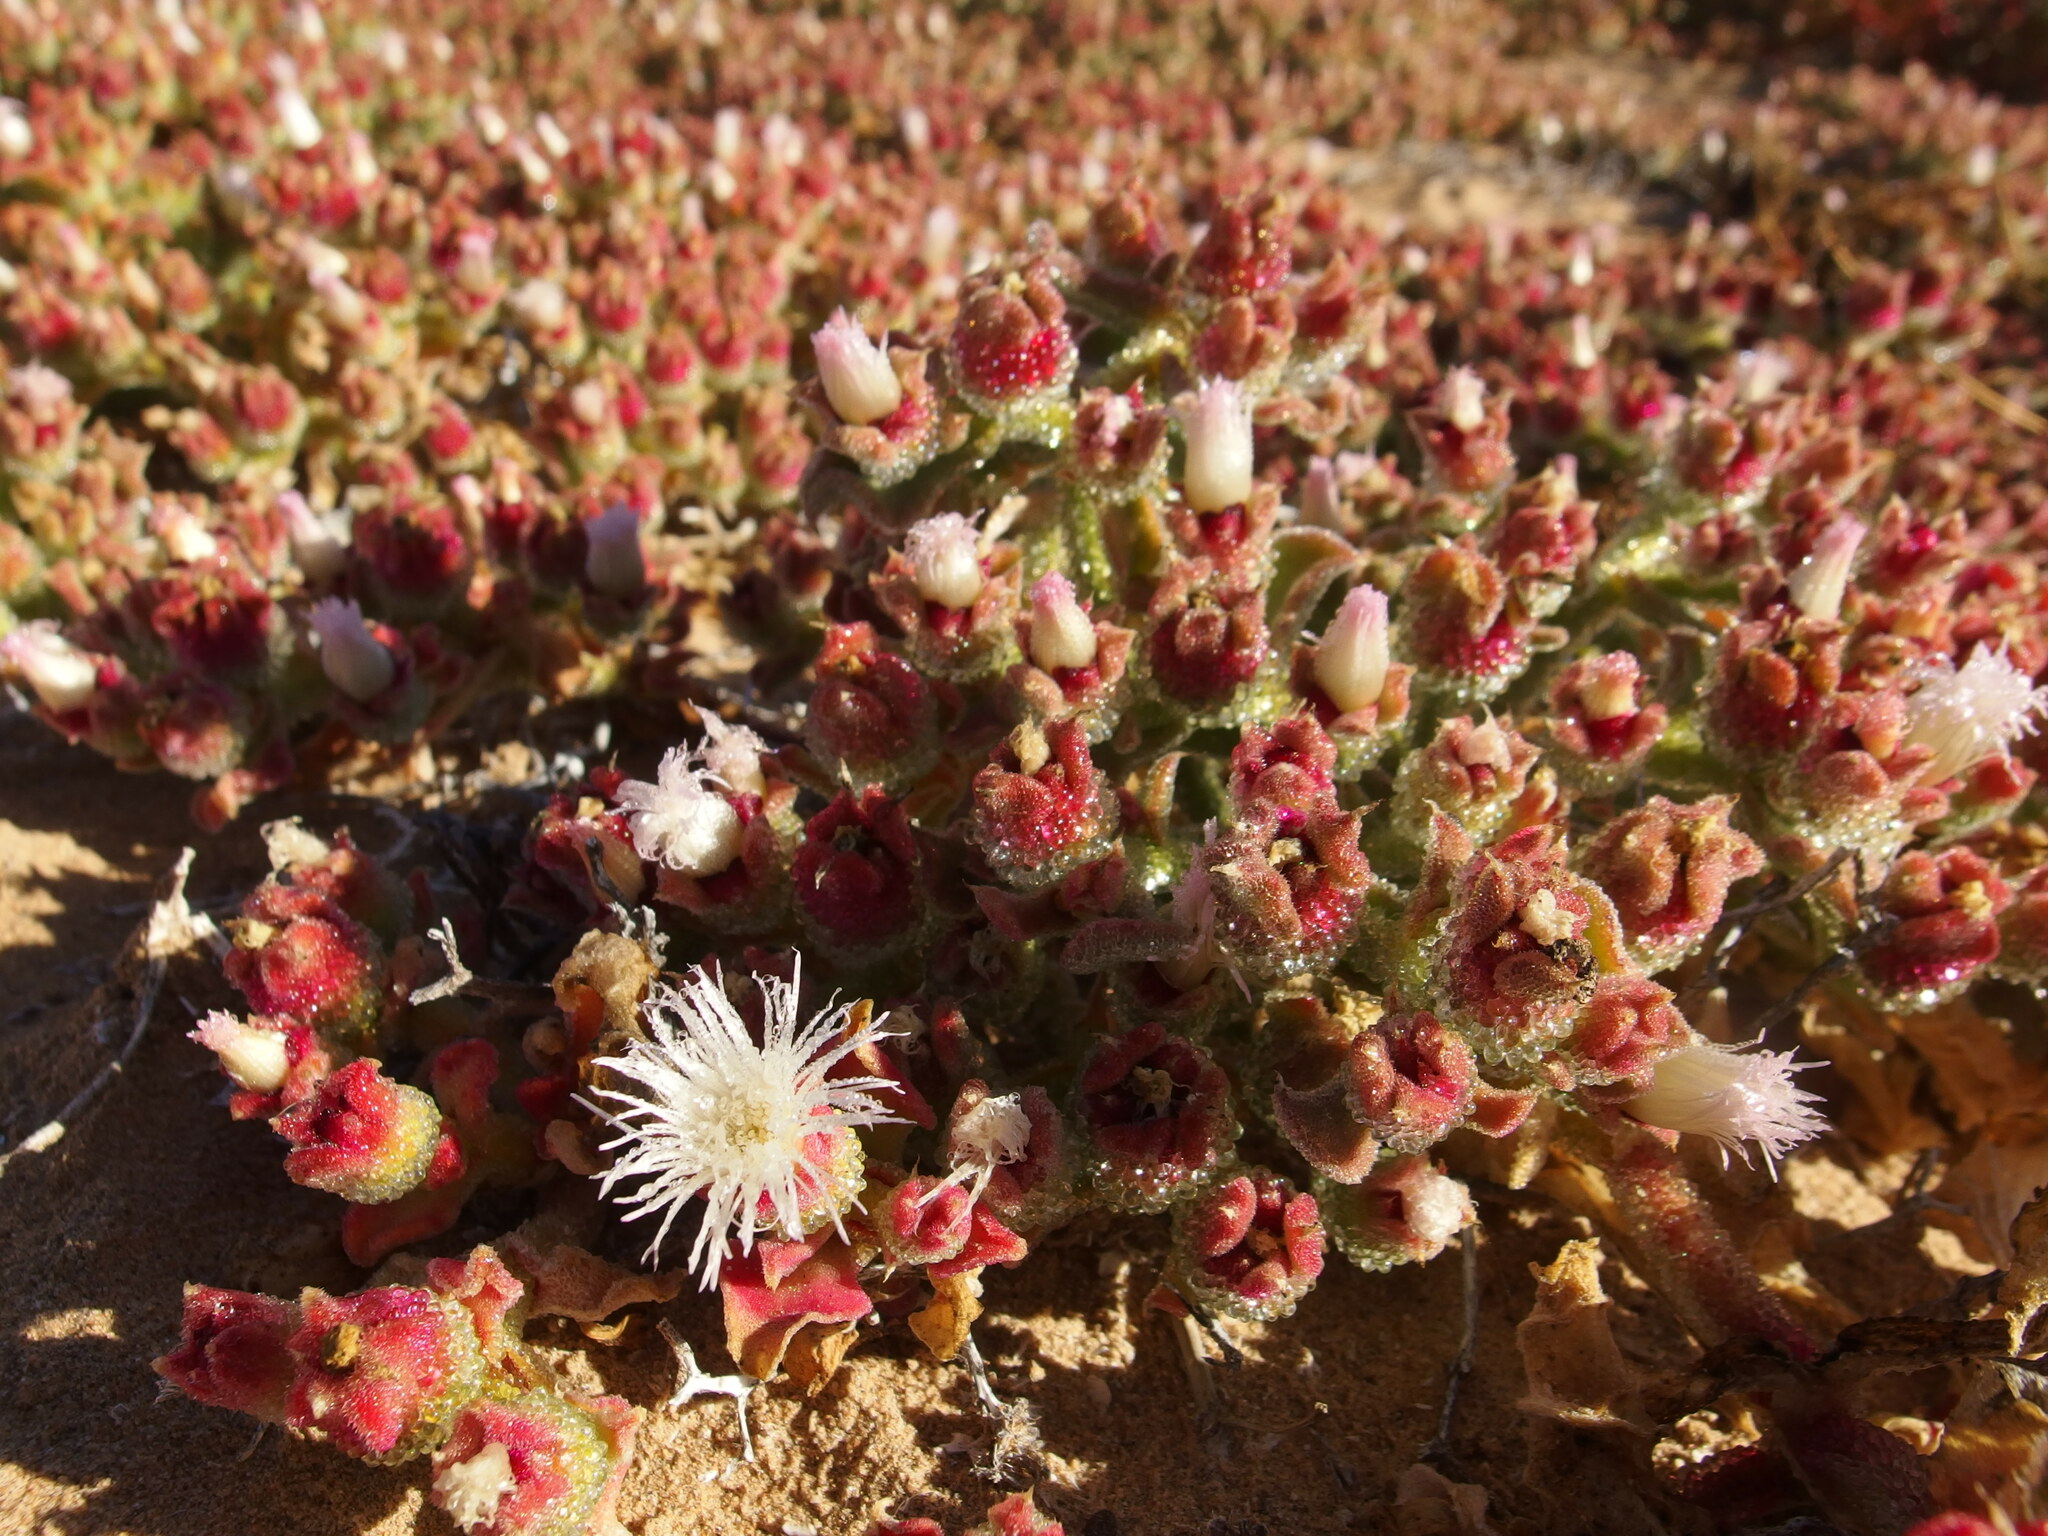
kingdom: Plantae
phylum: Tracheophyta
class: Magnoliopsida
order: Caryophyllales
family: Aizoaceae
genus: Mesembryanthemum
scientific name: Mesembryanthemum crystallinum
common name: Common iceplant
